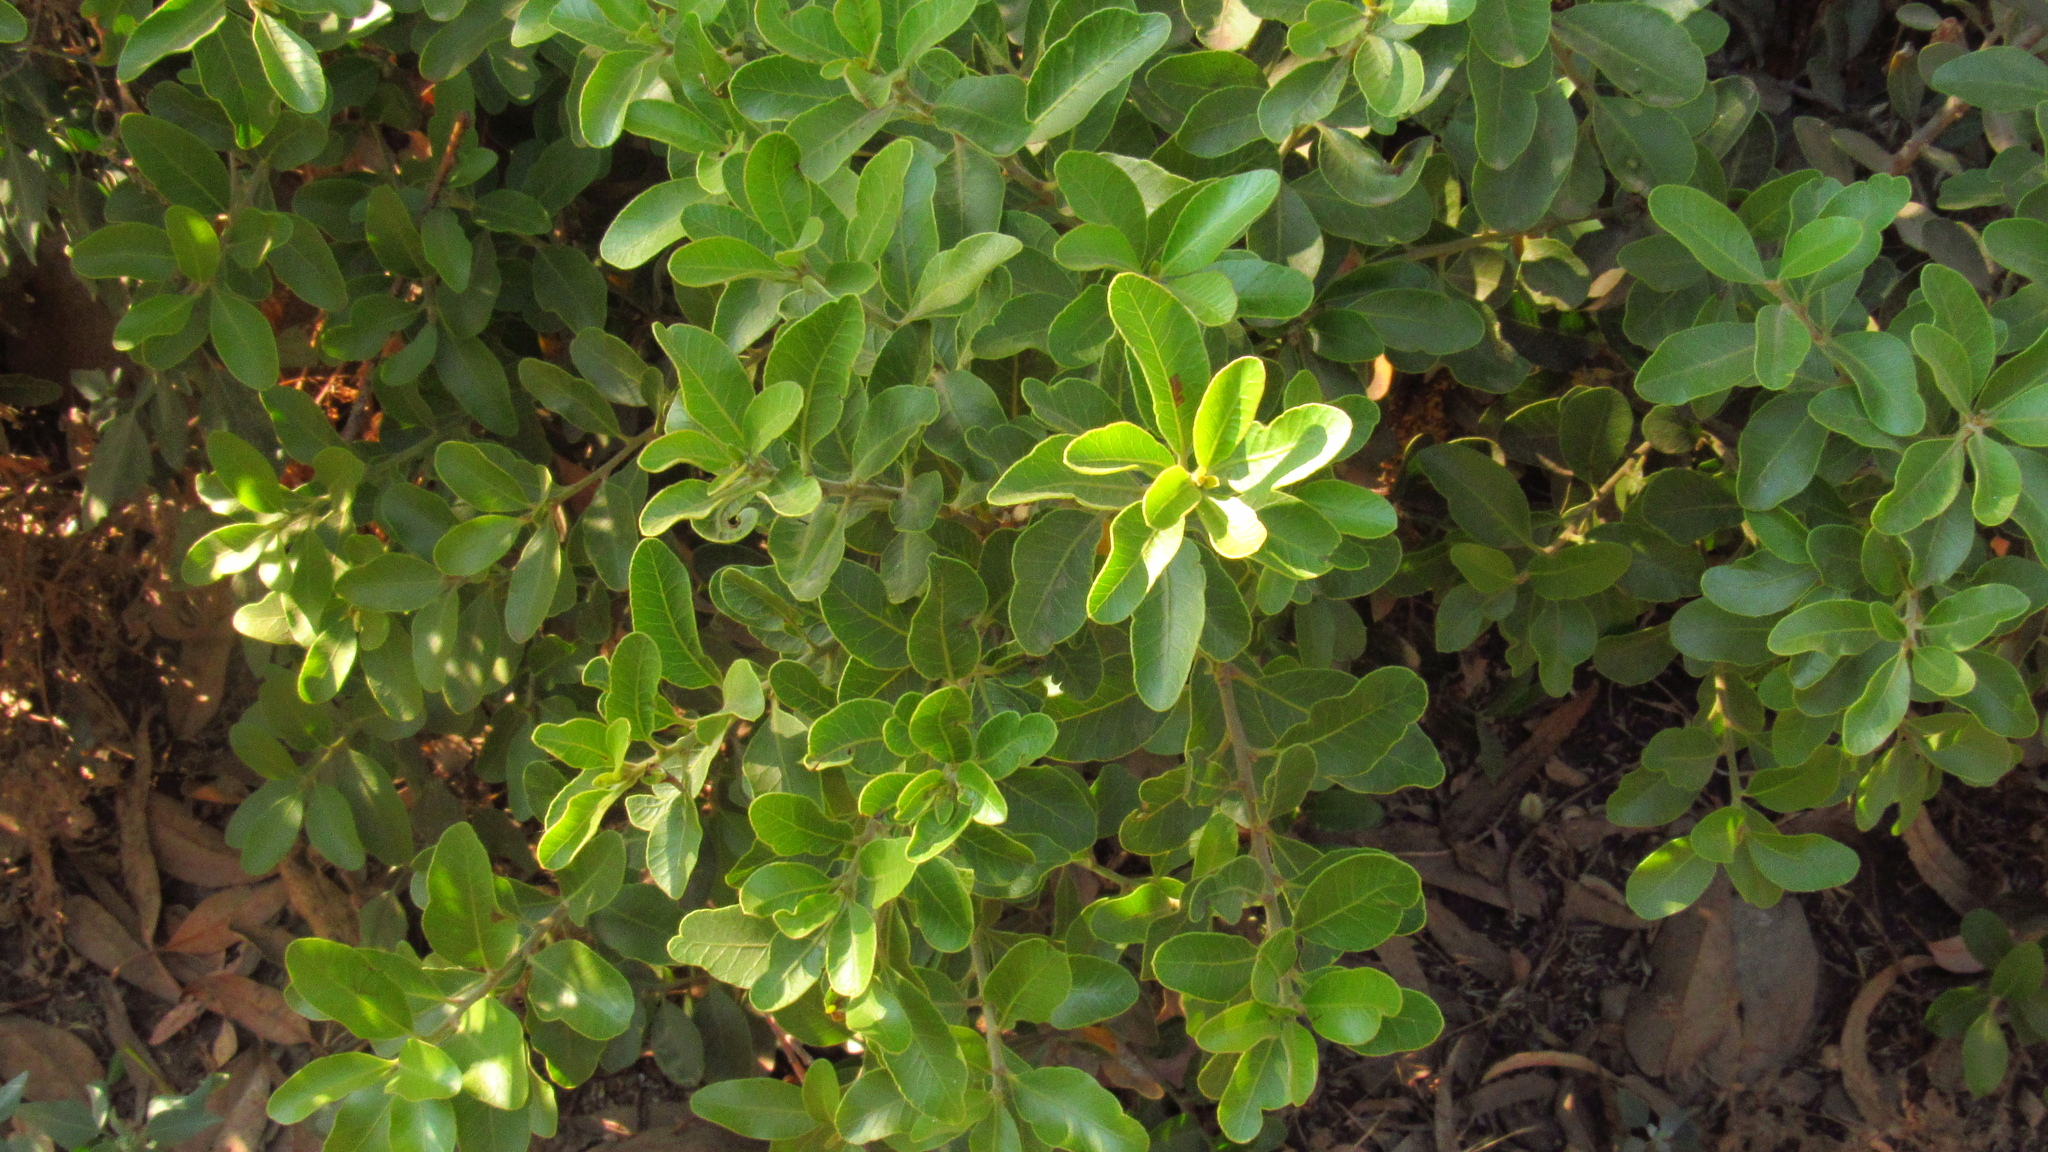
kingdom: Plantae
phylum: Tracheophyta
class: Magnoliopsida
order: Sapindales
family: Anacardiaceae
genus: Lithraea
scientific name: Lithraea caustica
